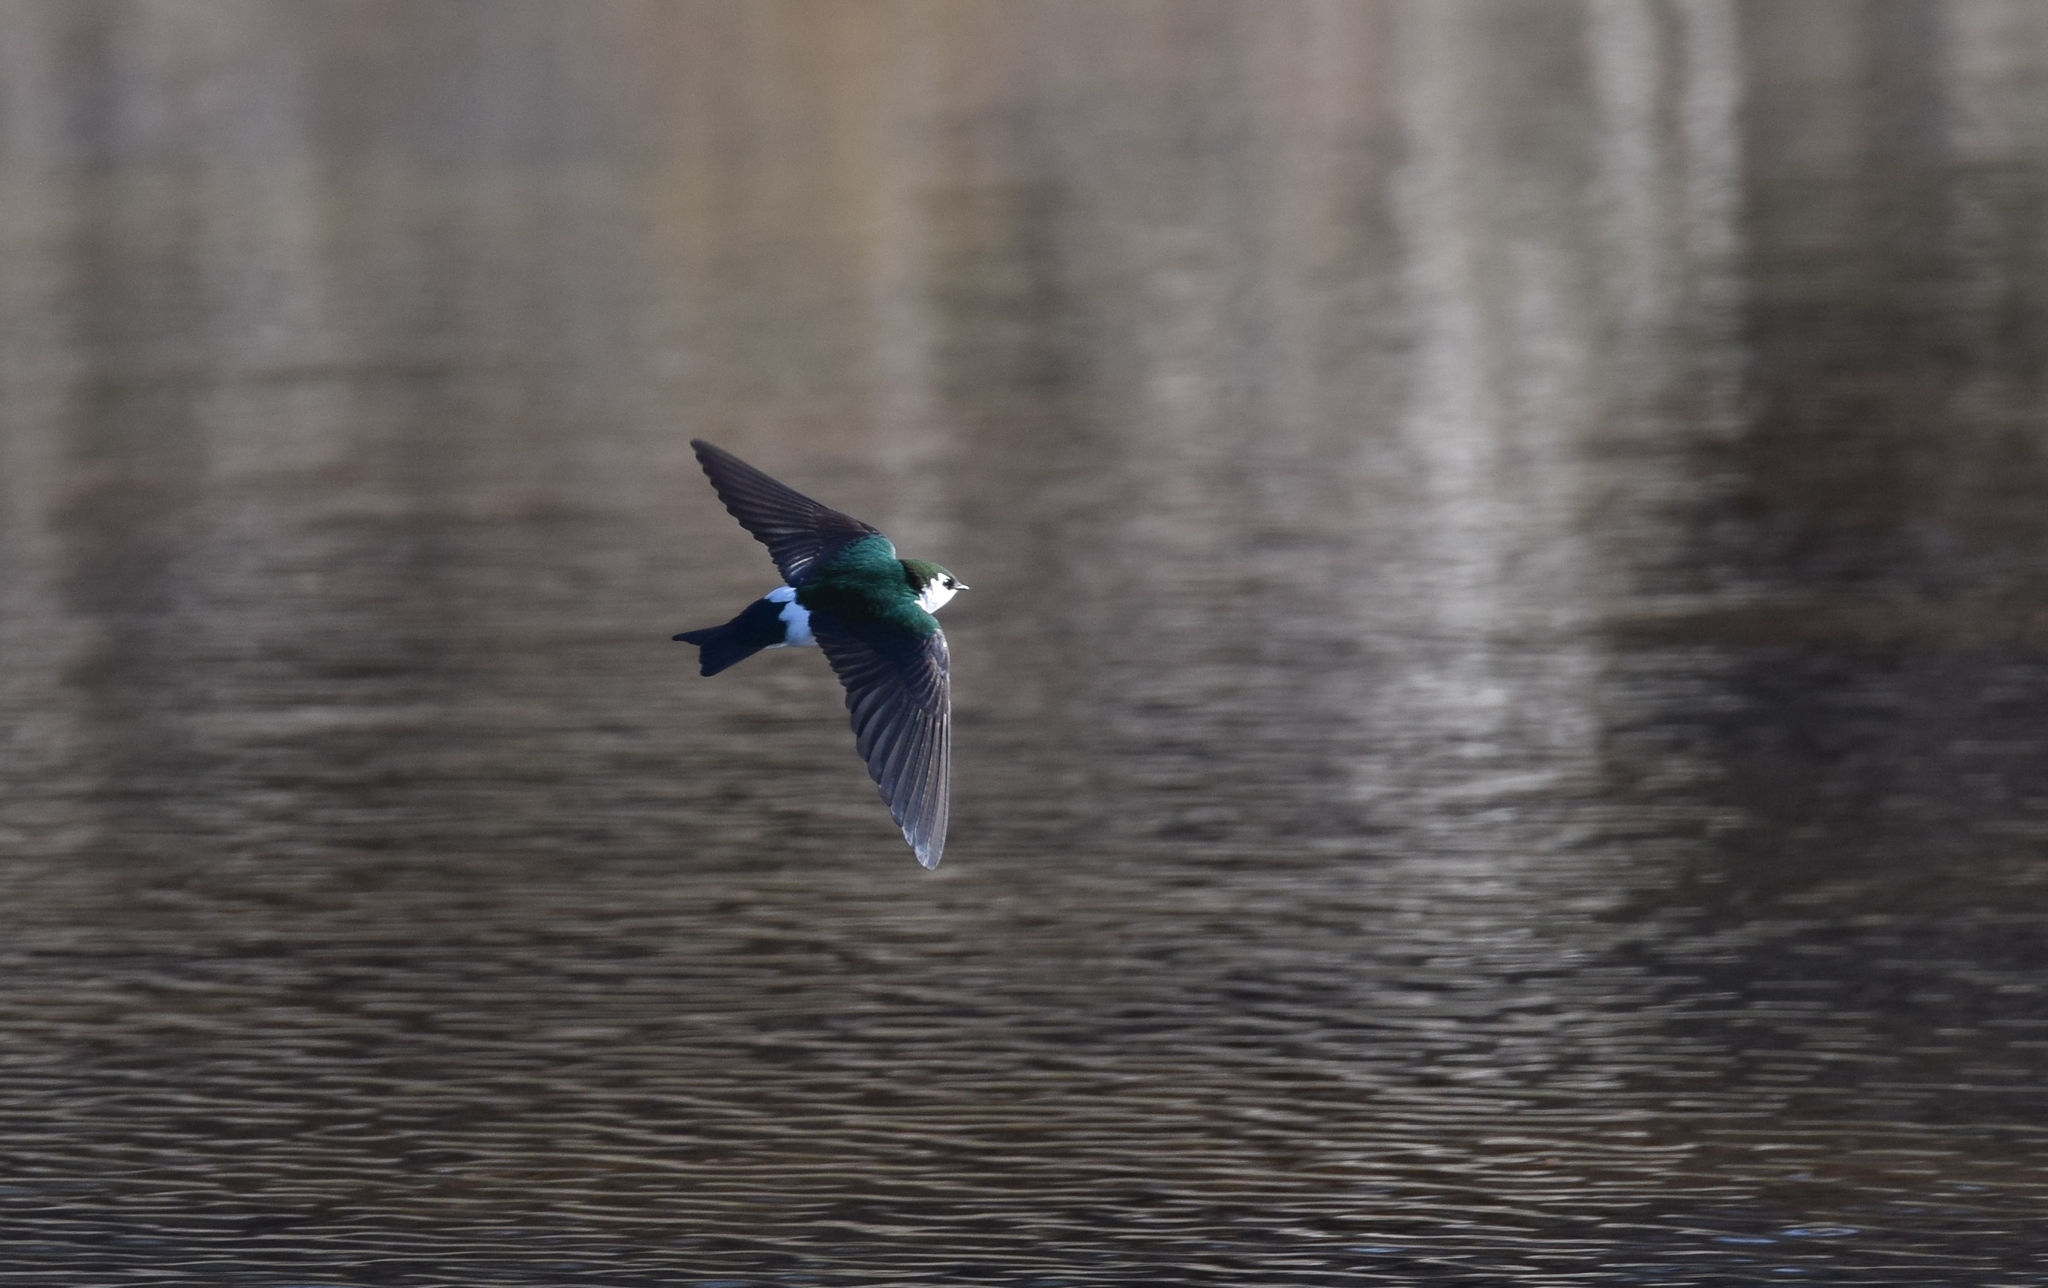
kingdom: Animalia
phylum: Chordata
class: Aves
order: Passeriformes
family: Hirundinidae
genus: Tachycineta
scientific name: Tachycineta thalassina
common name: Violet-green swallow
